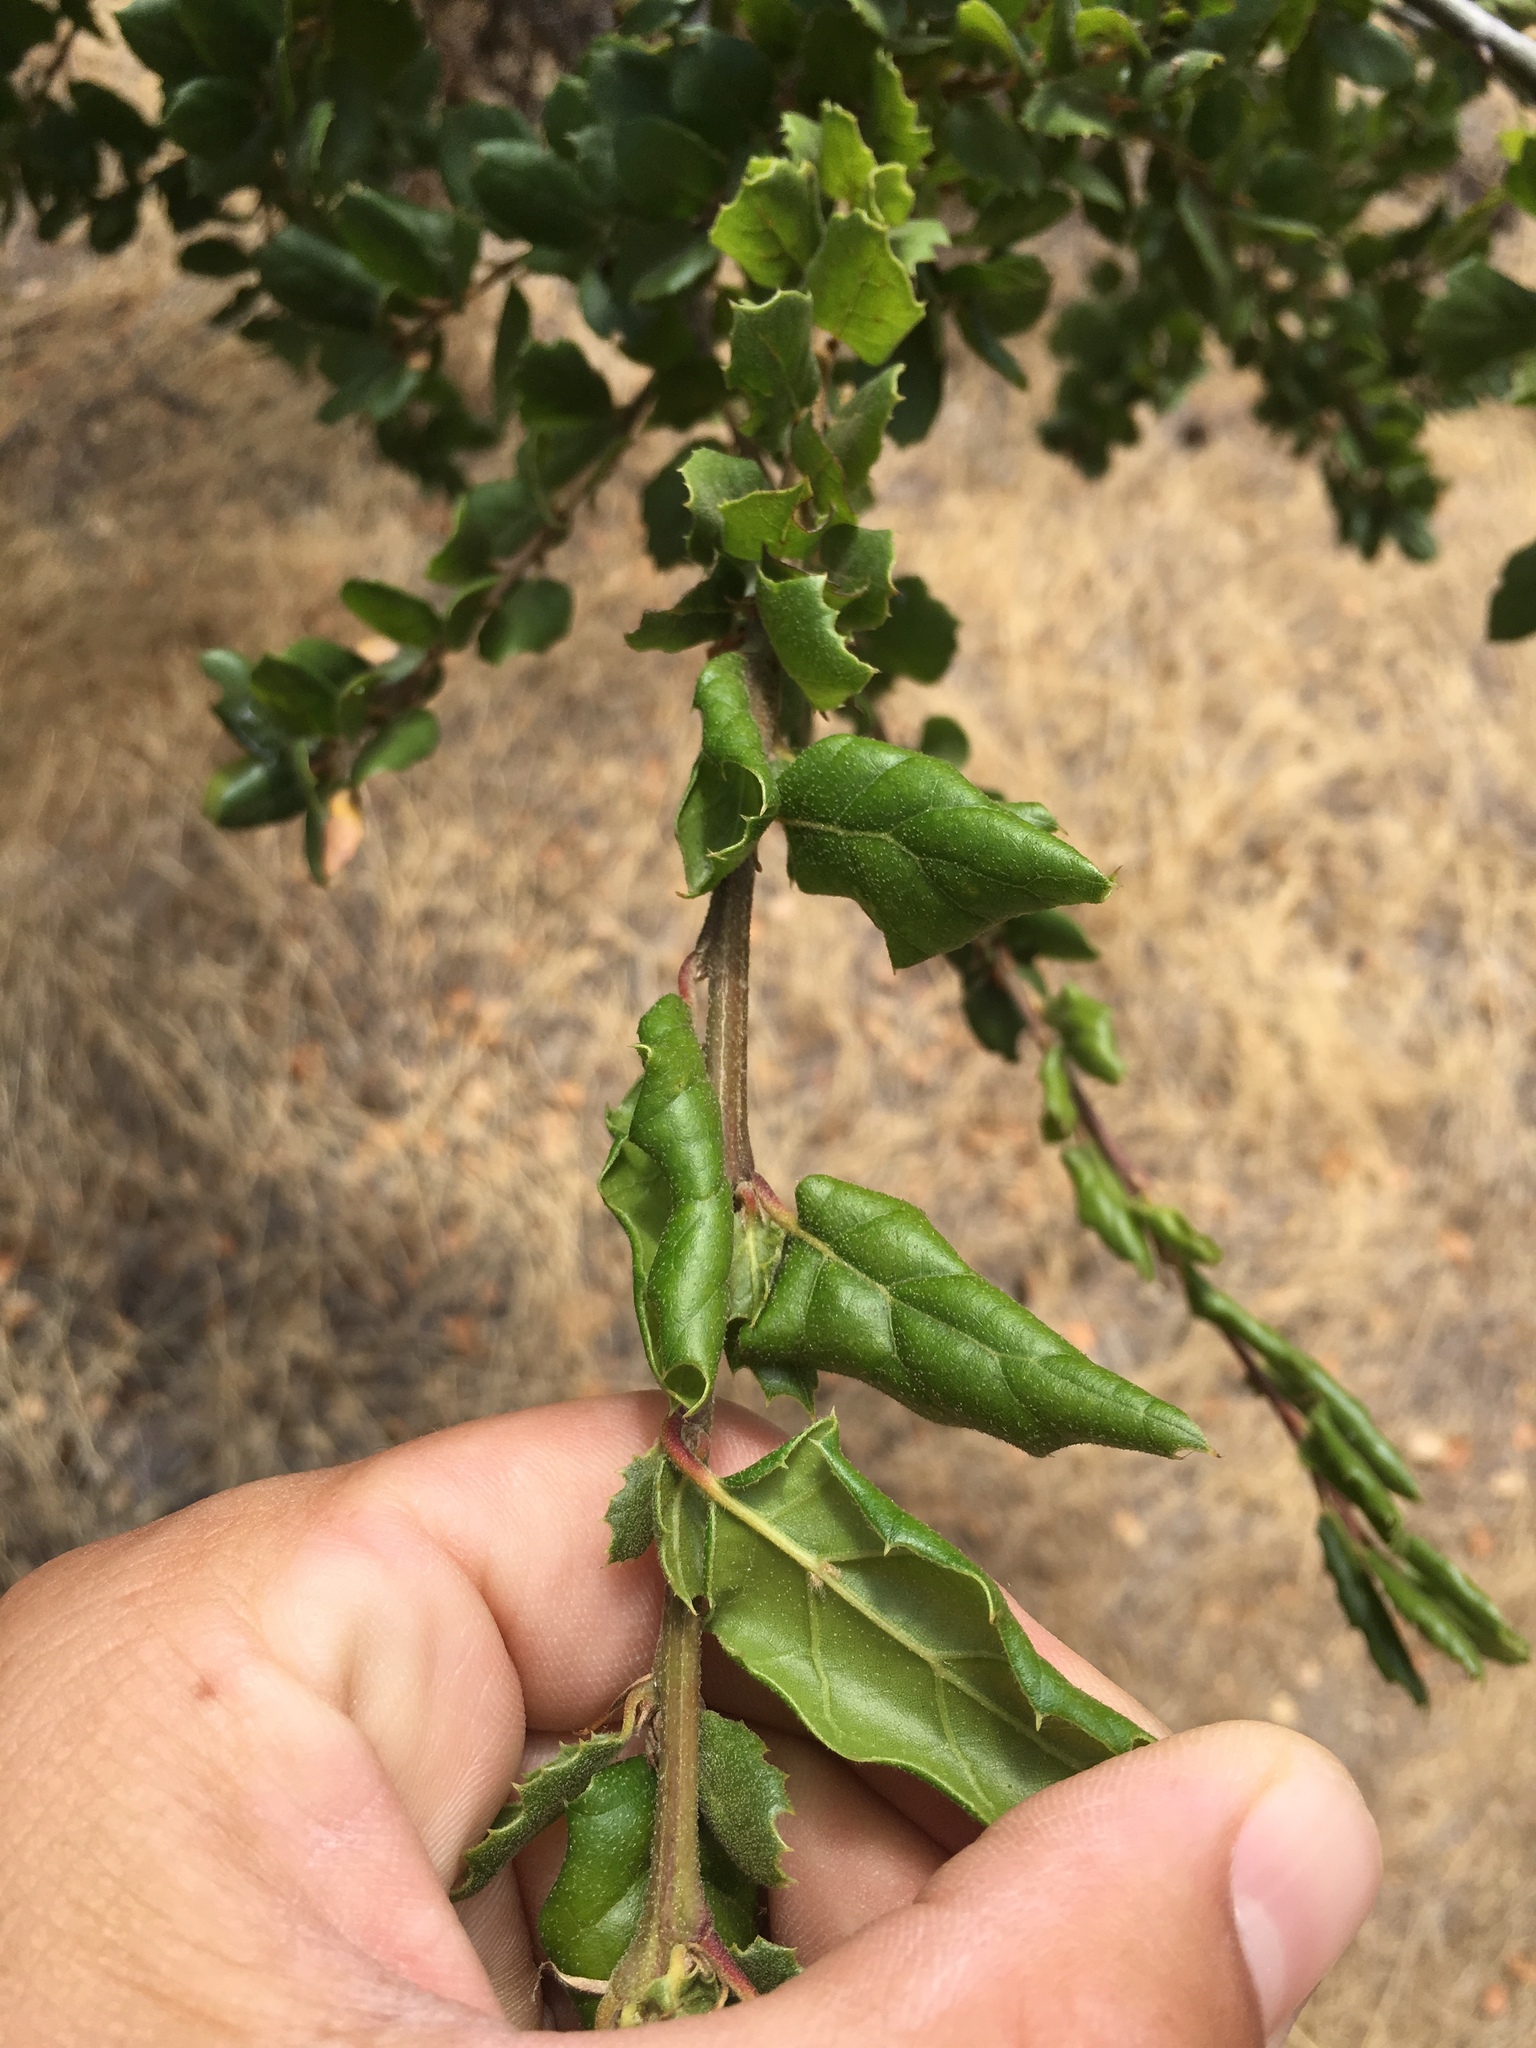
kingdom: Plantae
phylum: Tracheophyta
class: Magnoliopsida
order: Fagales
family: Fagaceae
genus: Quercus
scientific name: Quercus agrifolia
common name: California live oak
